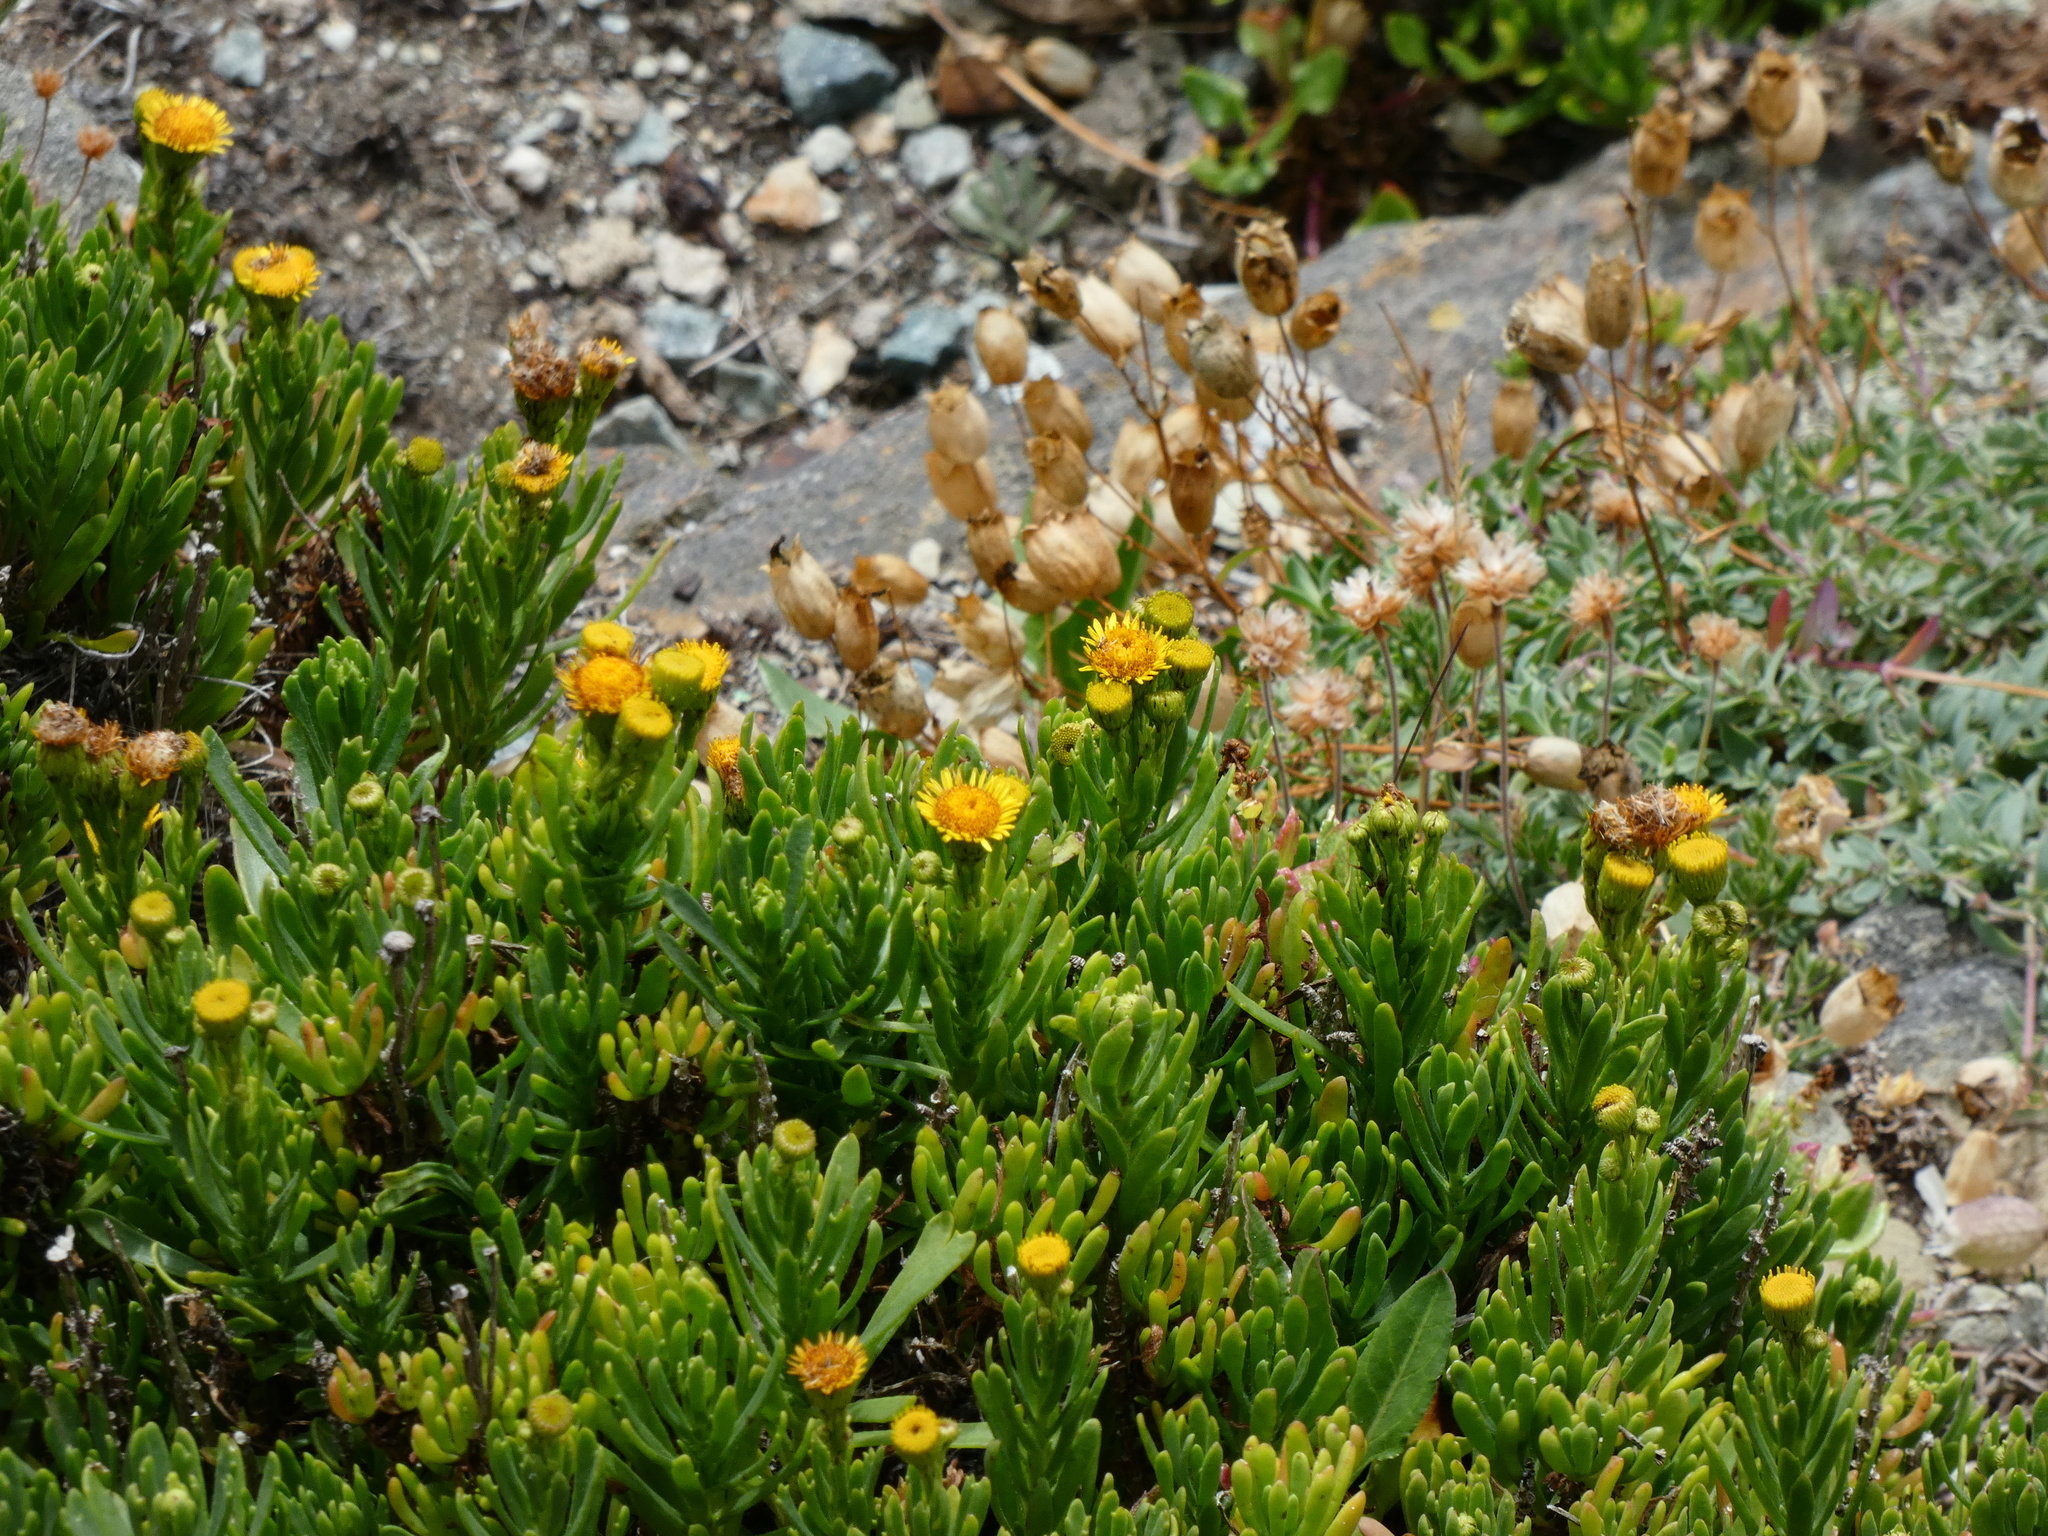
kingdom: Plantae
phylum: Tracheophyta
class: Magnoliopsida
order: Asterales
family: Asteraceae
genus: Limbarda
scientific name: Limbarda crithmoides
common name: Golden samphire
